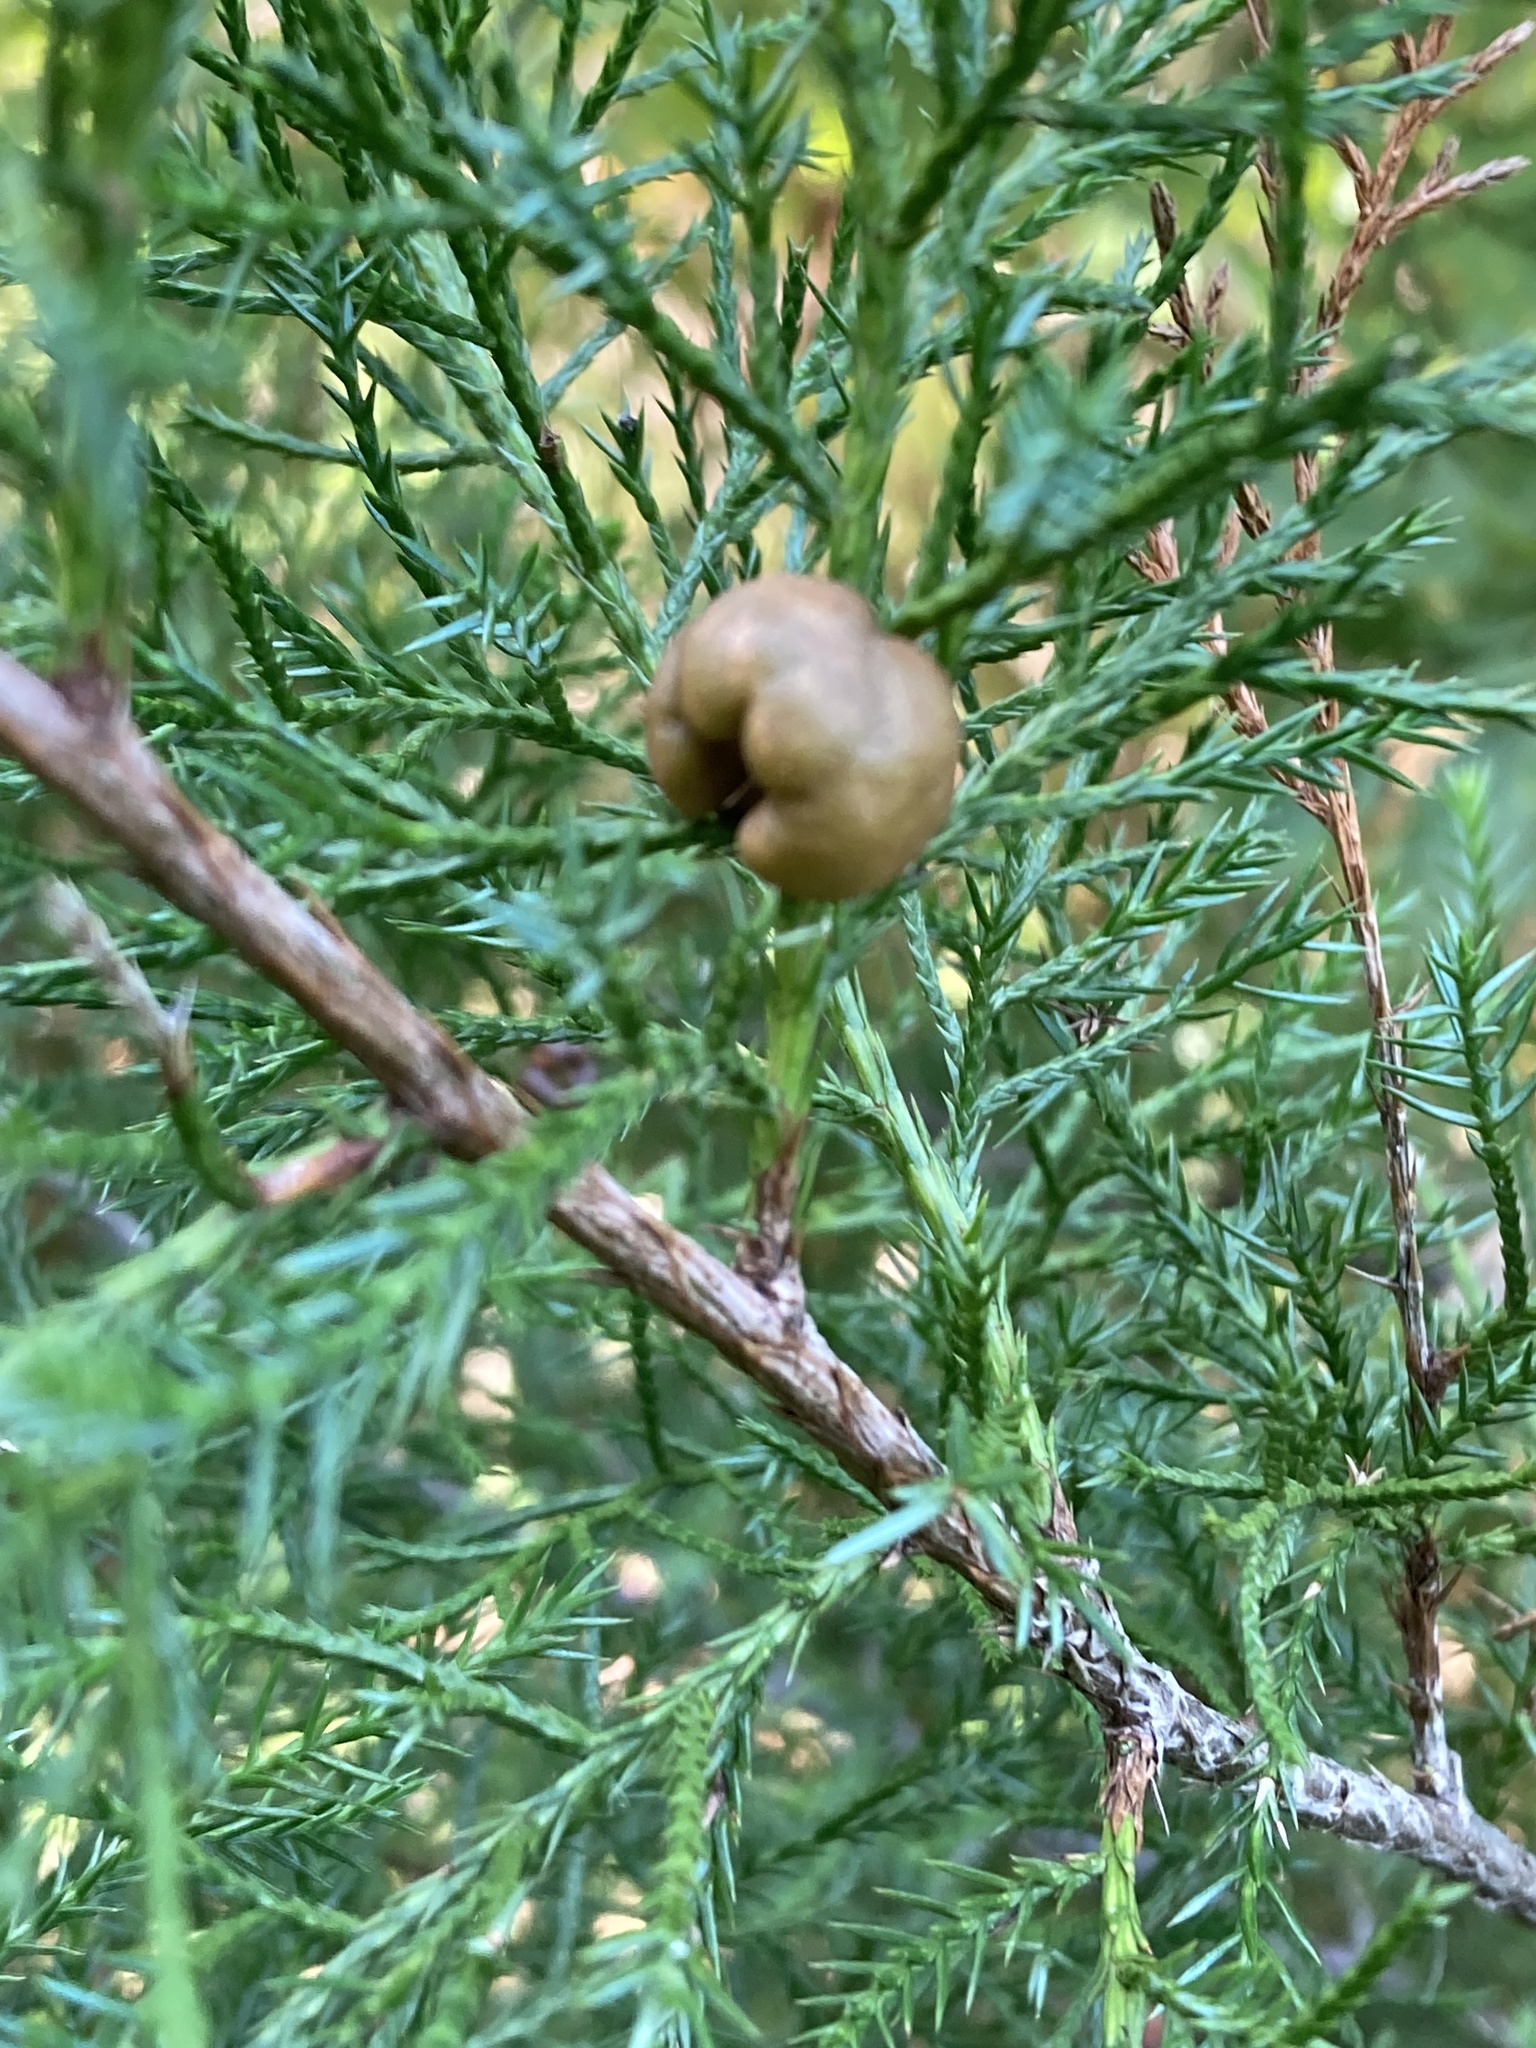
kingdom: Fungi
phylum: Basidiomycota
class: Pucciniomycetes
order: Pucciniales
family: Gymnosporangiaceae
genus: Gymnosporangium
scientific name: Gymnosporangium juniperi-virginianae
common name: Juniper-apple rust
